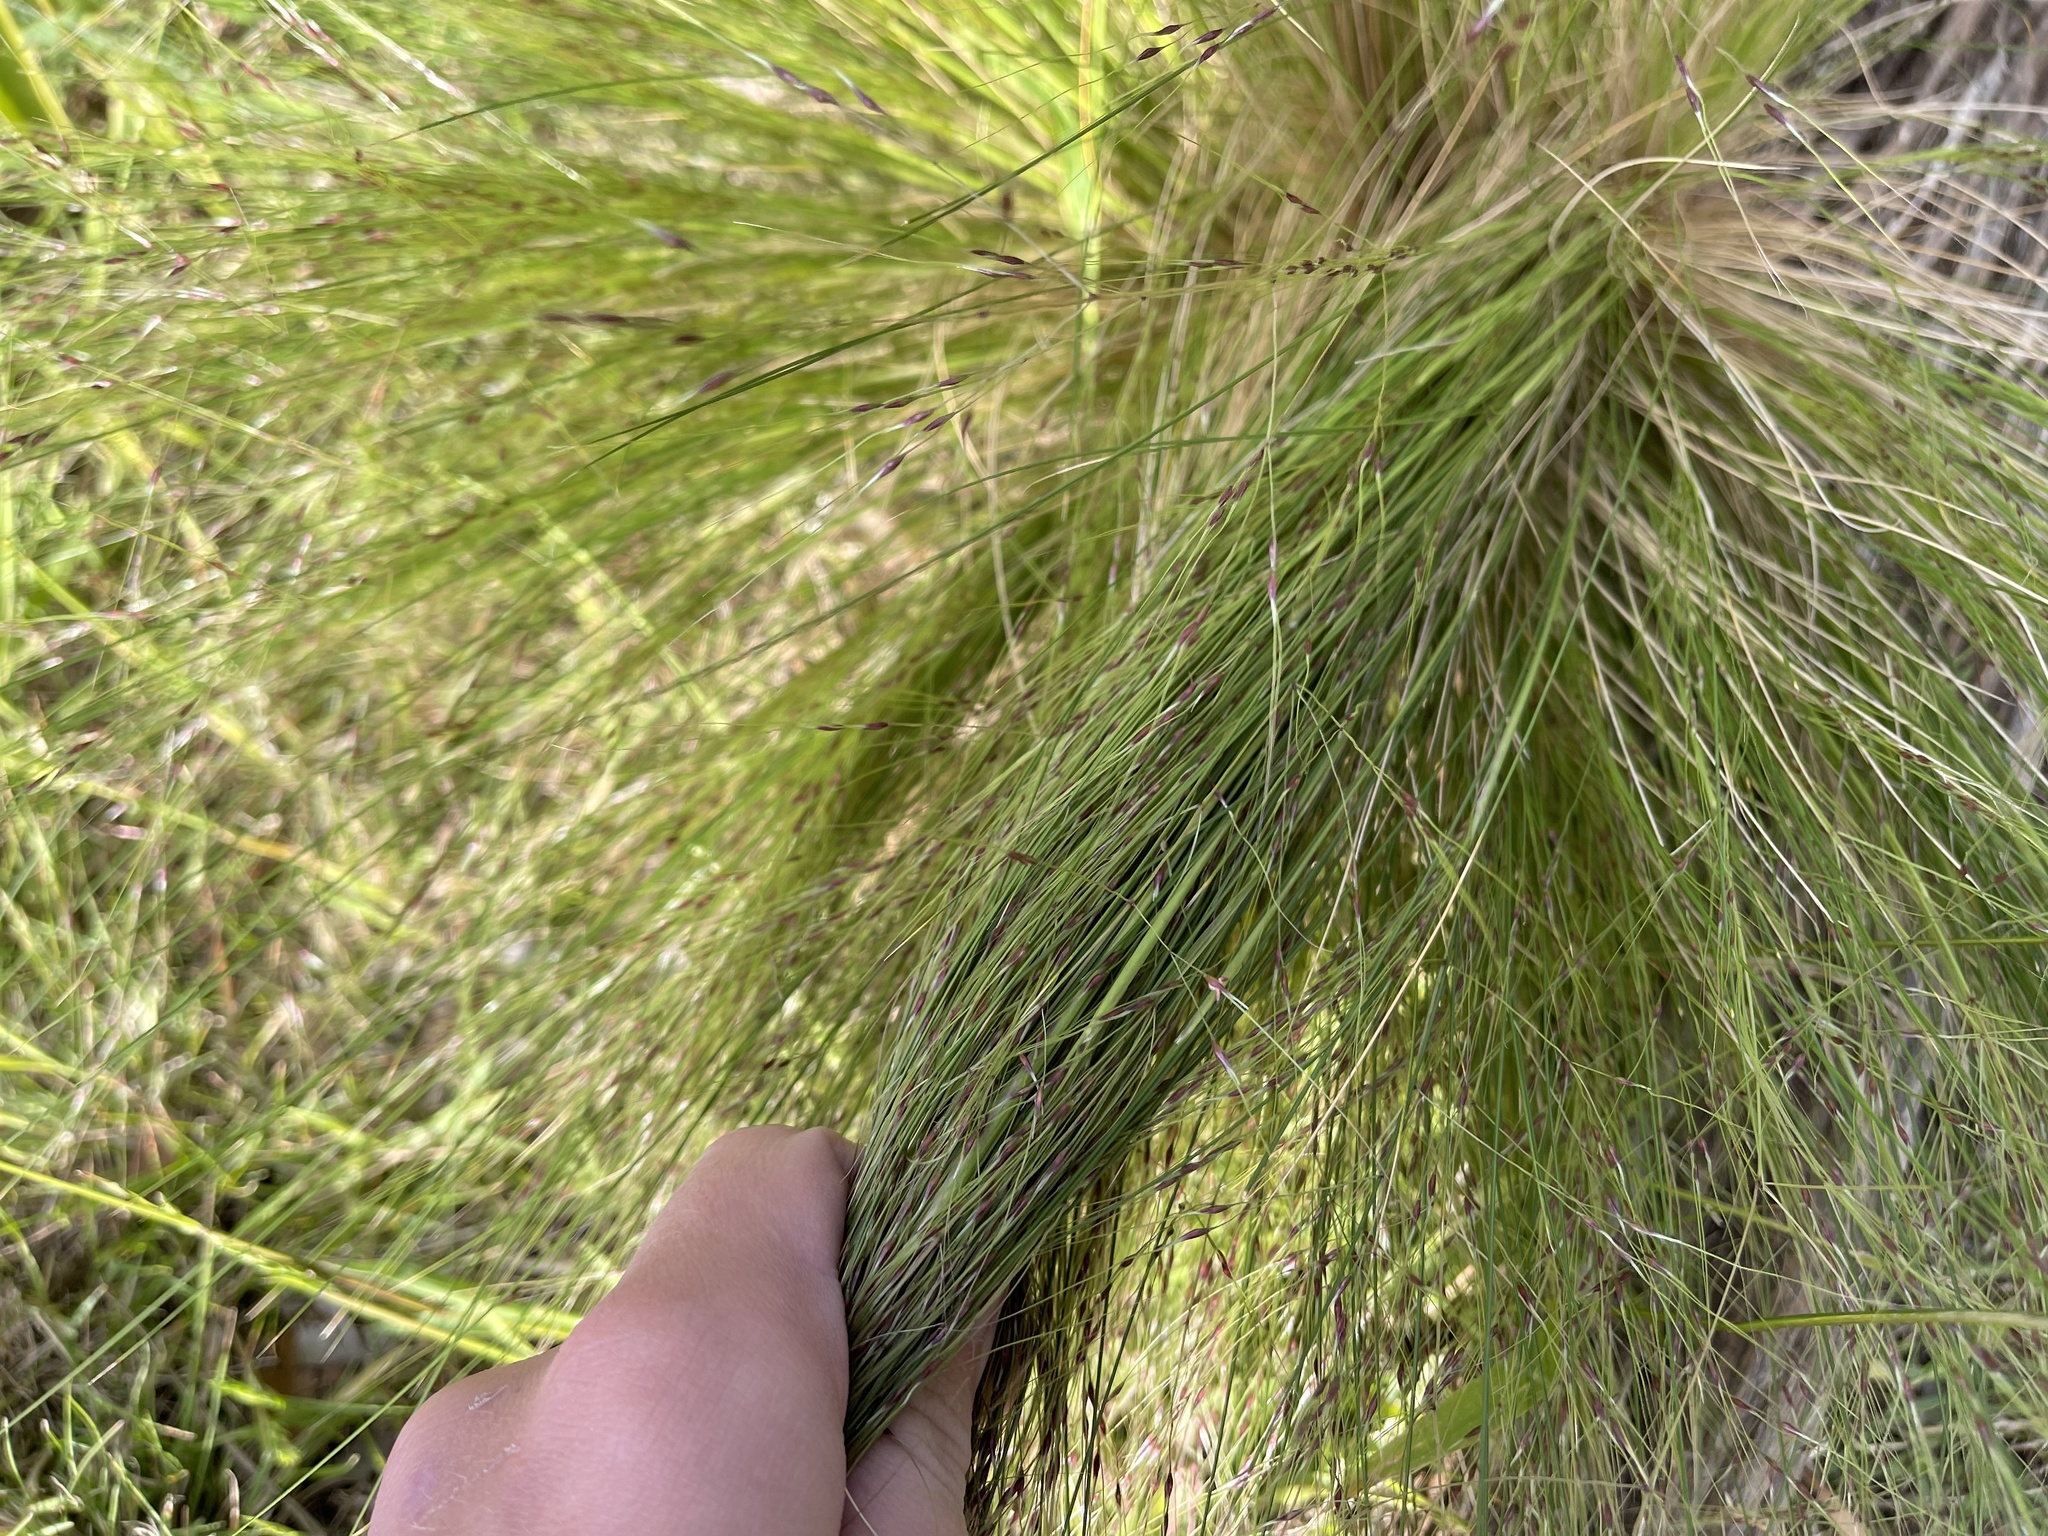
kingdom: Plantae
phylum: Tracheophyta
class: Liliopsida
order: Poales
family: Poaceae
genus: Nassella
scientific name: Nassella trichotoma
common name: Serrated tussock grass
